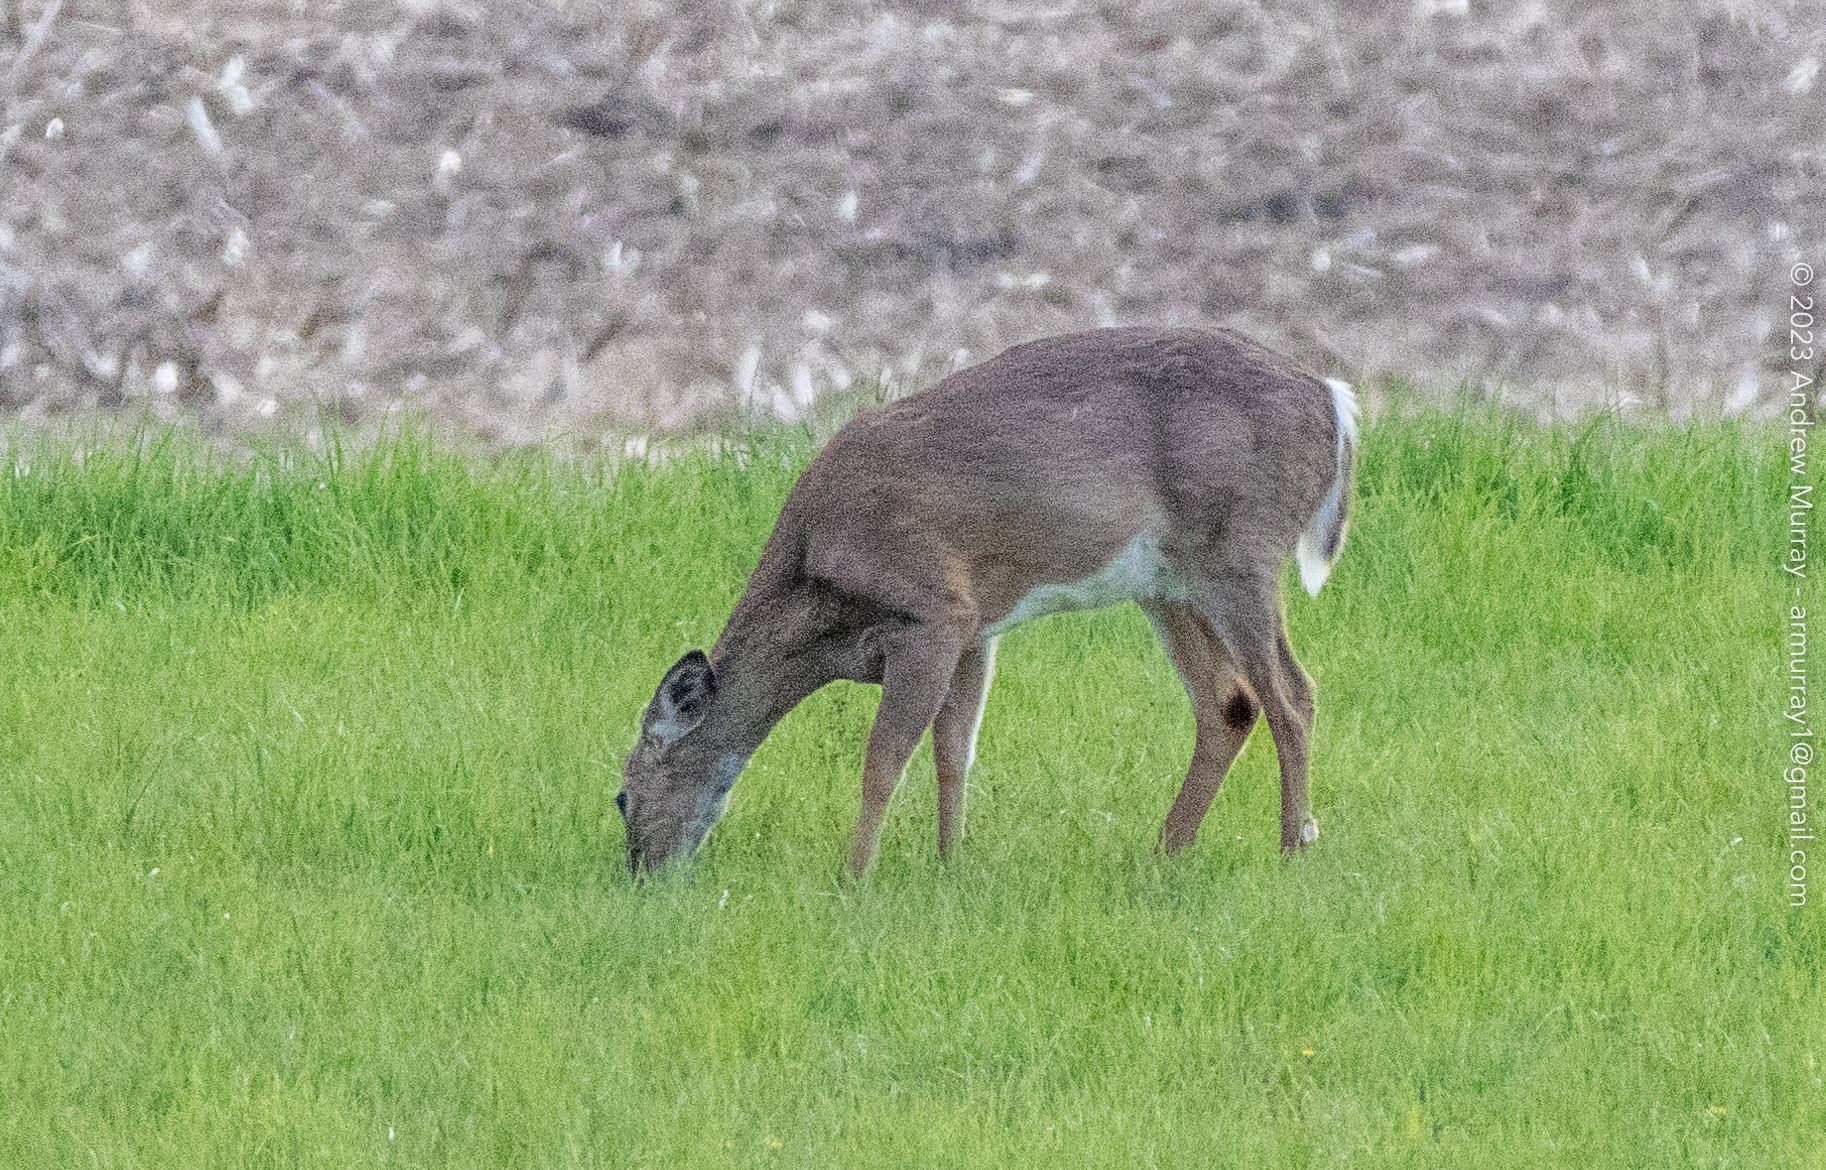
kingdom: Animalia
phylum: Chordata
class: Mammalia
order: Artiodactyla
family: Cervidae
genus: Odocoileus
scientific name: Odocoileus virginianus
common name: White-tailed deer
